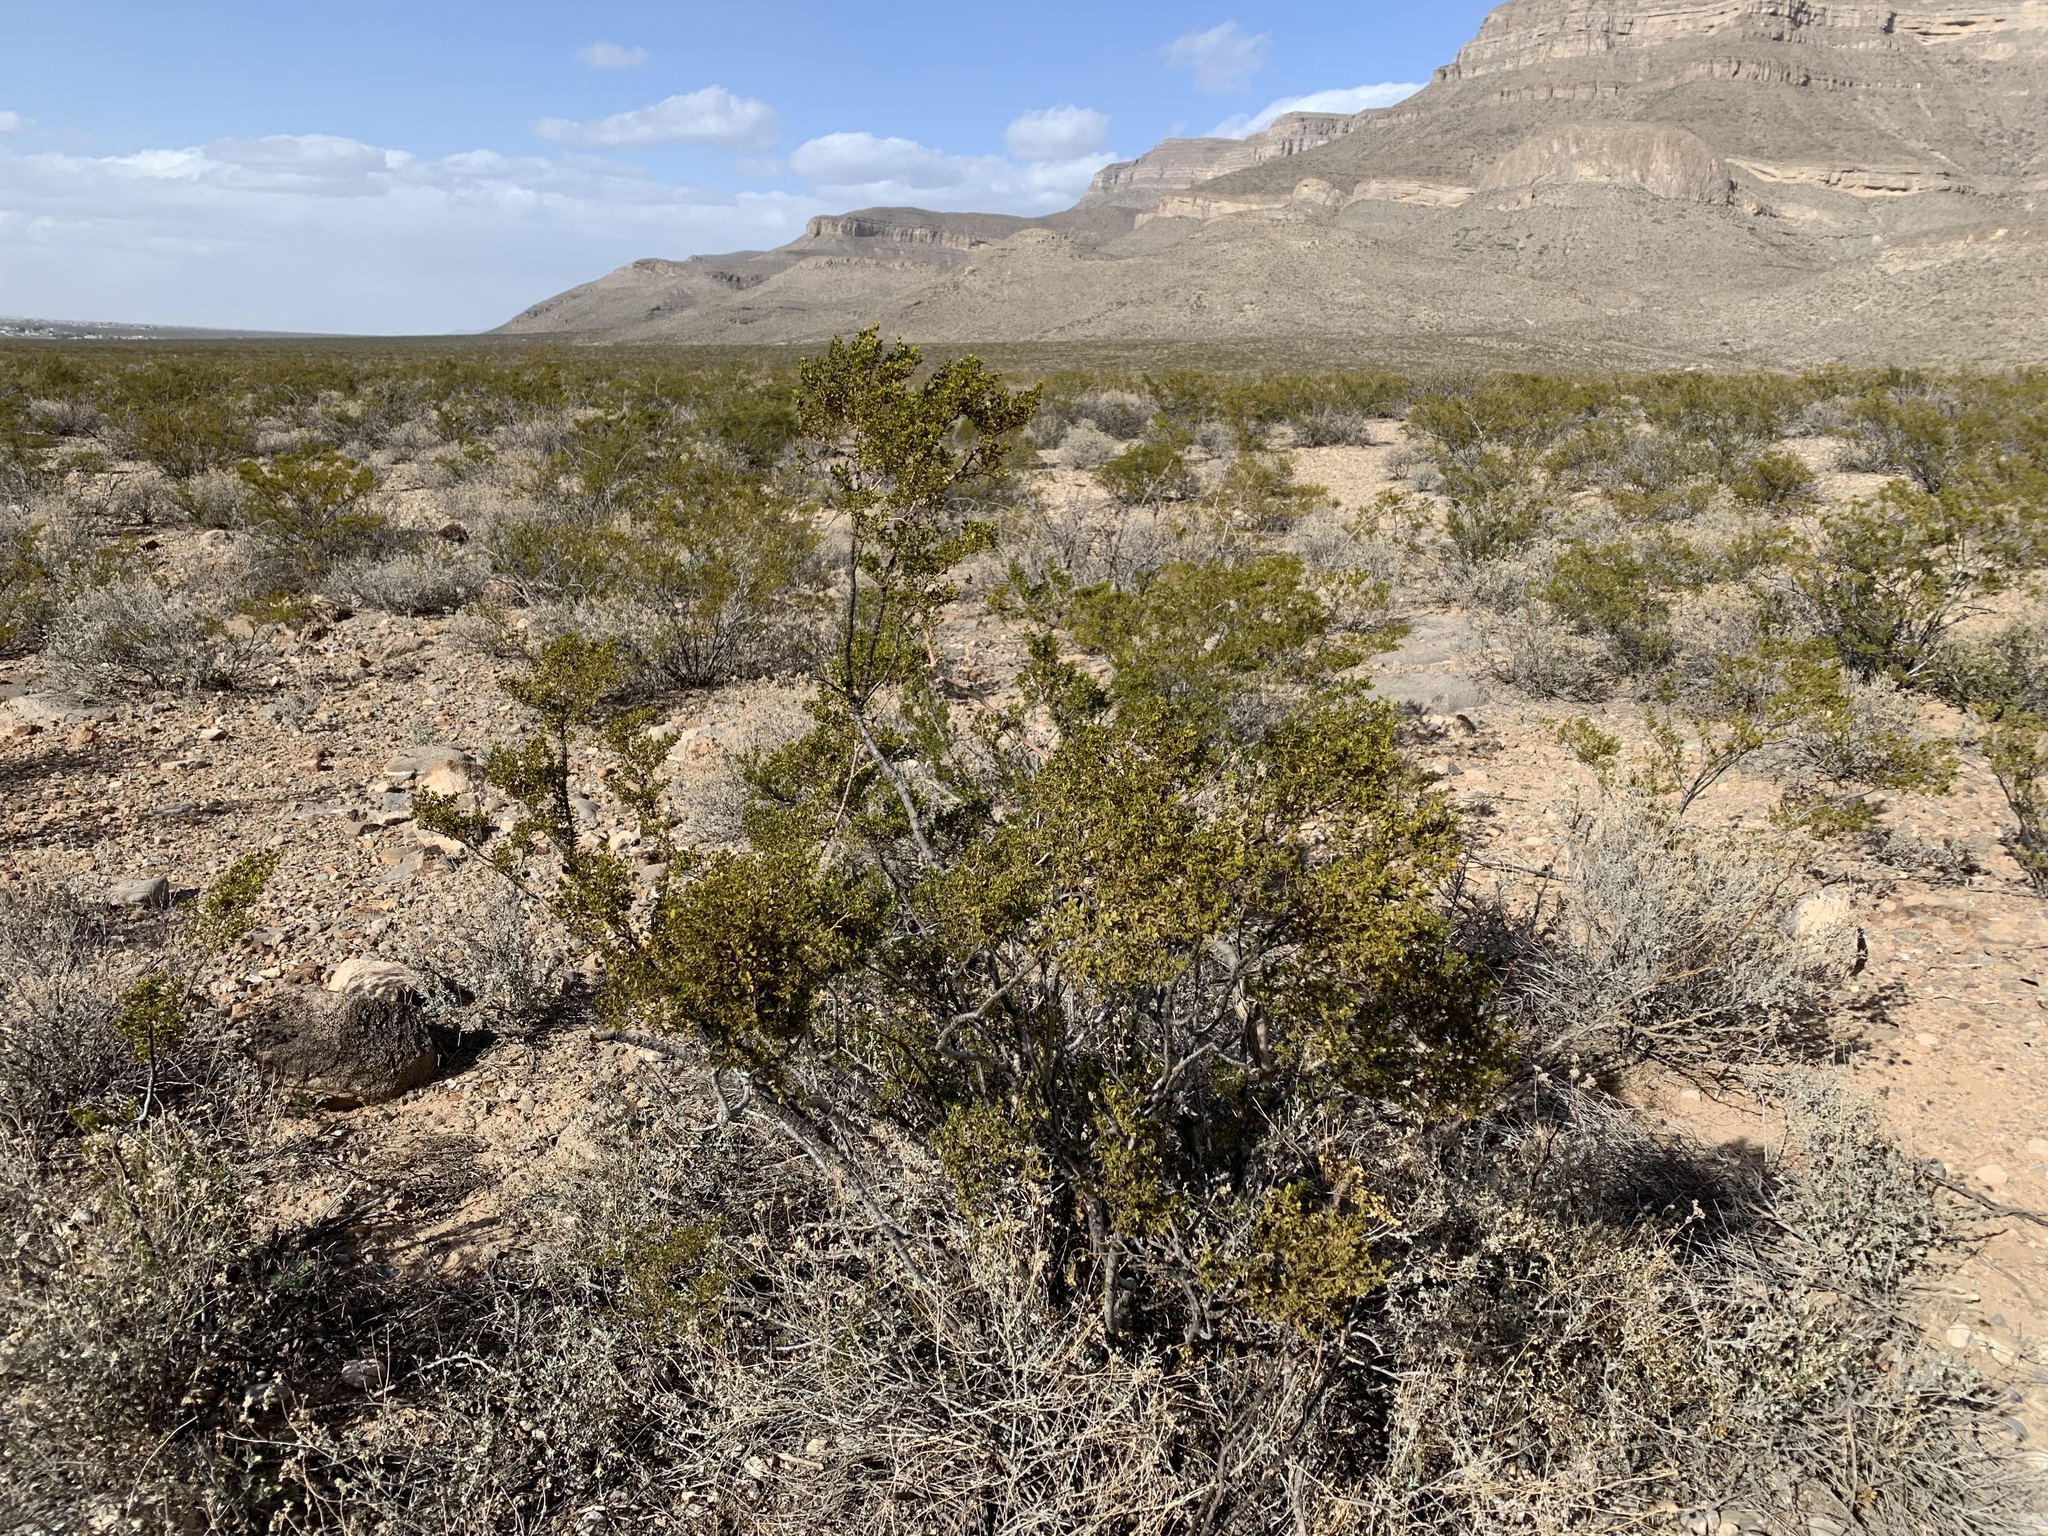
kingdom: Plantae
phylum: Tracheophyta
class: Magnoliopsida
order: Zygophyllales
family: Zygophyllaceae
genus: Larrea
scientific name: Larrea tridentata
